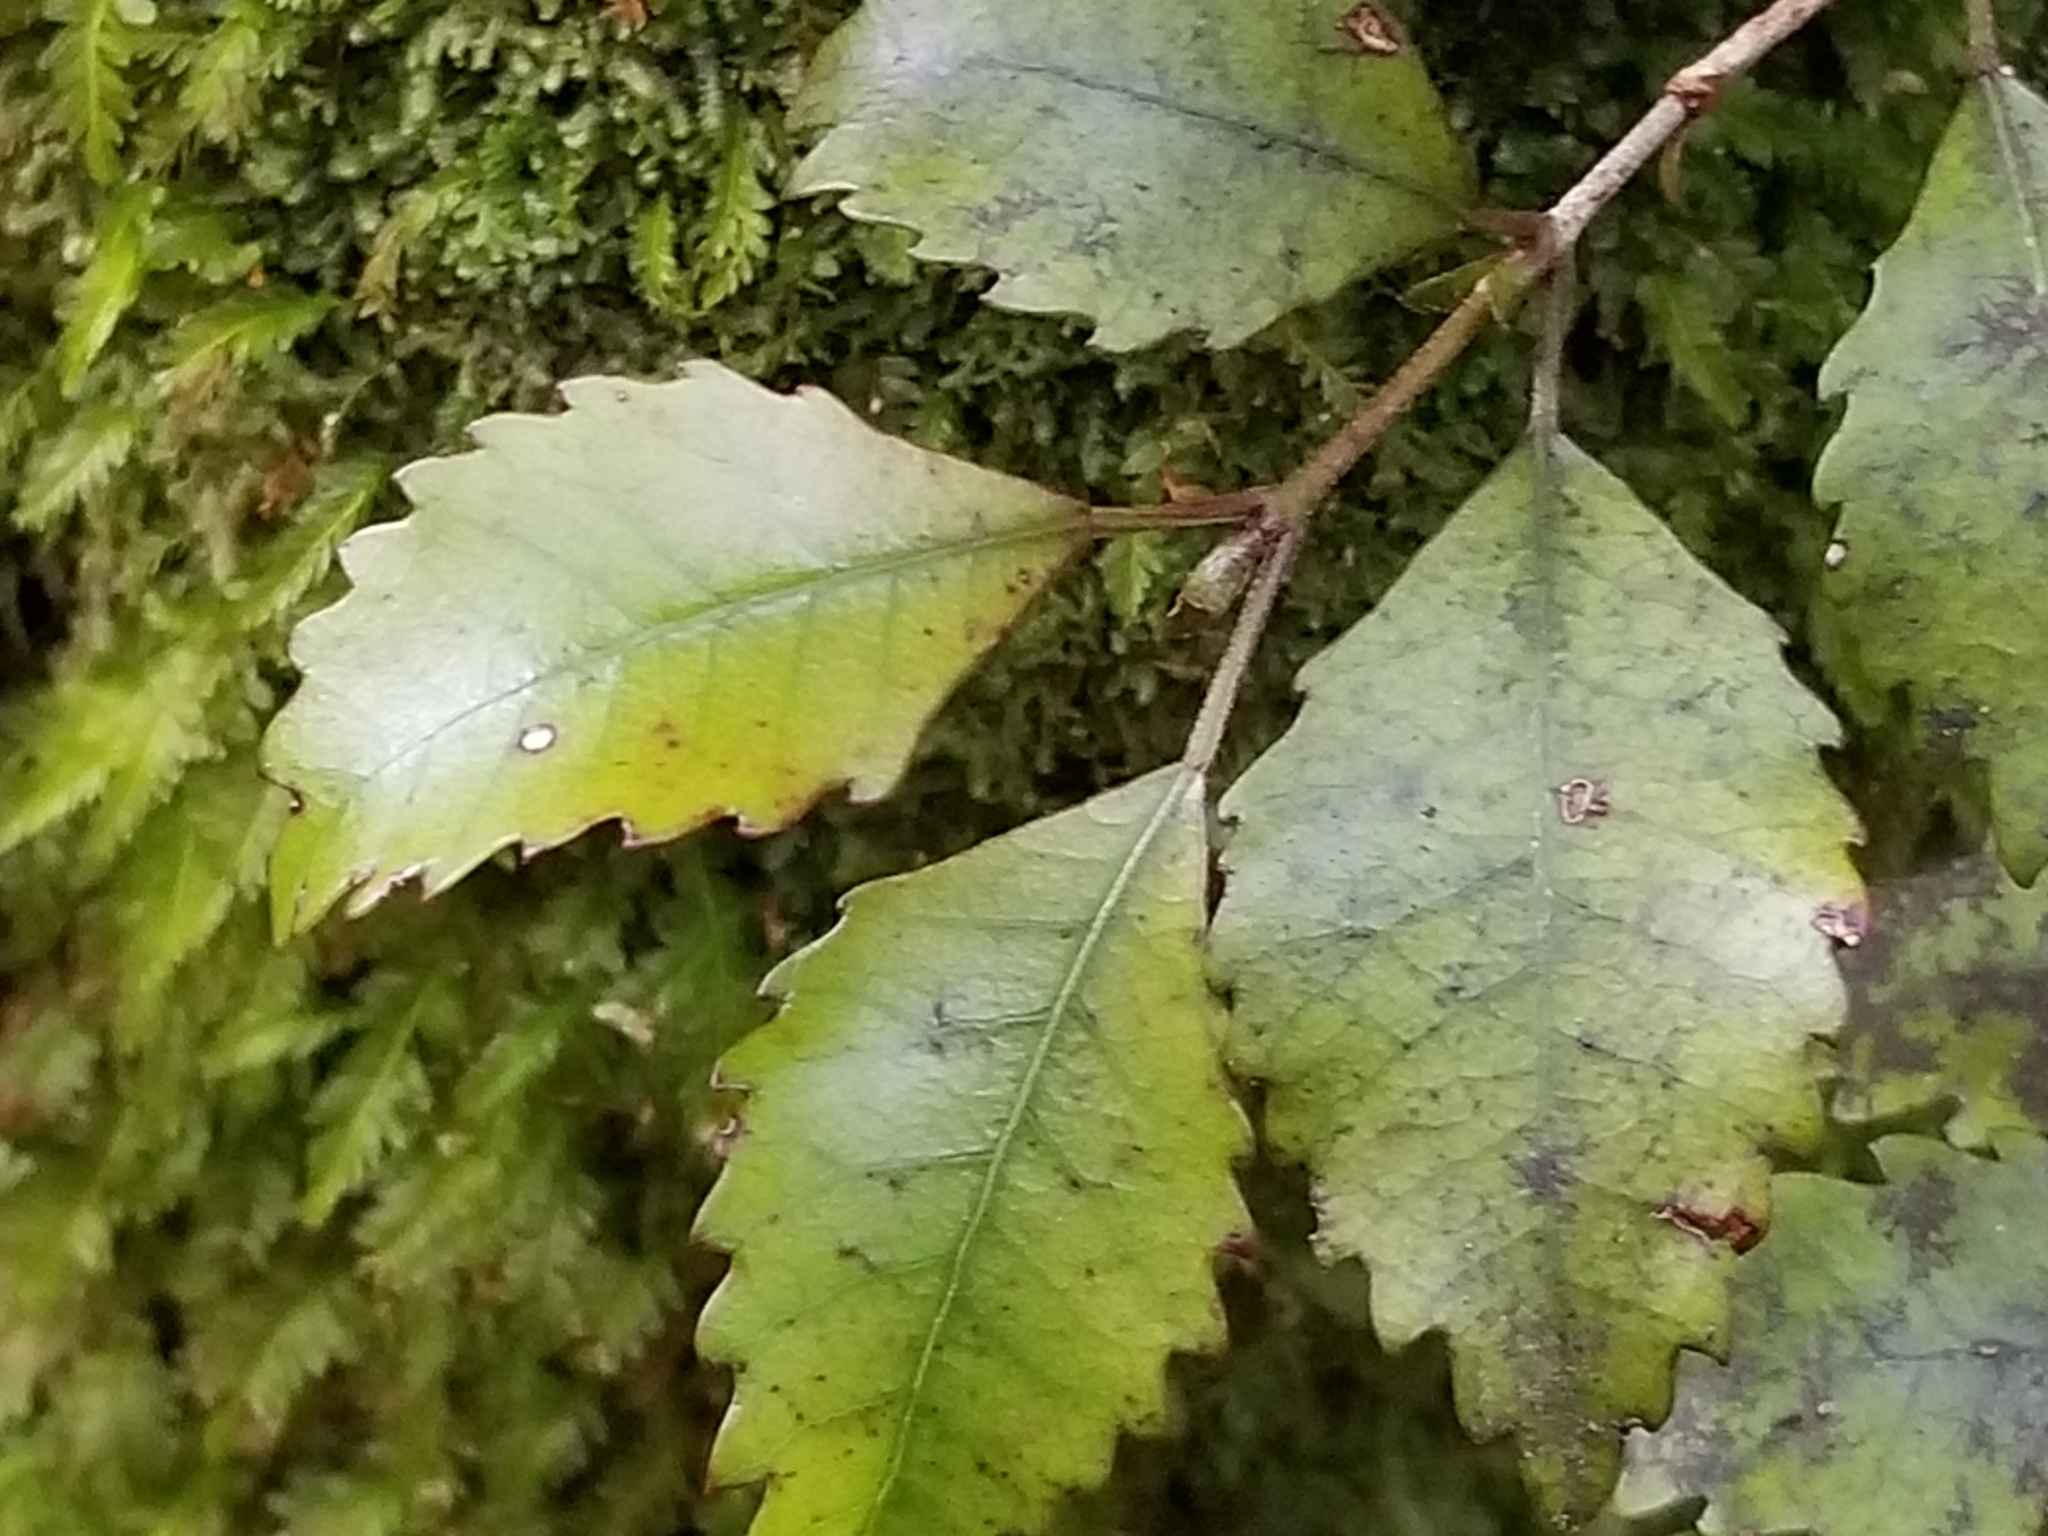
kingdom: Plantae
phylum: Tracheophyta
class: Magnoliopsida
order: Oxalidales
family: Cunoniaceae
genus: Pterophylla
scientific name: Pterophylla racemosa
